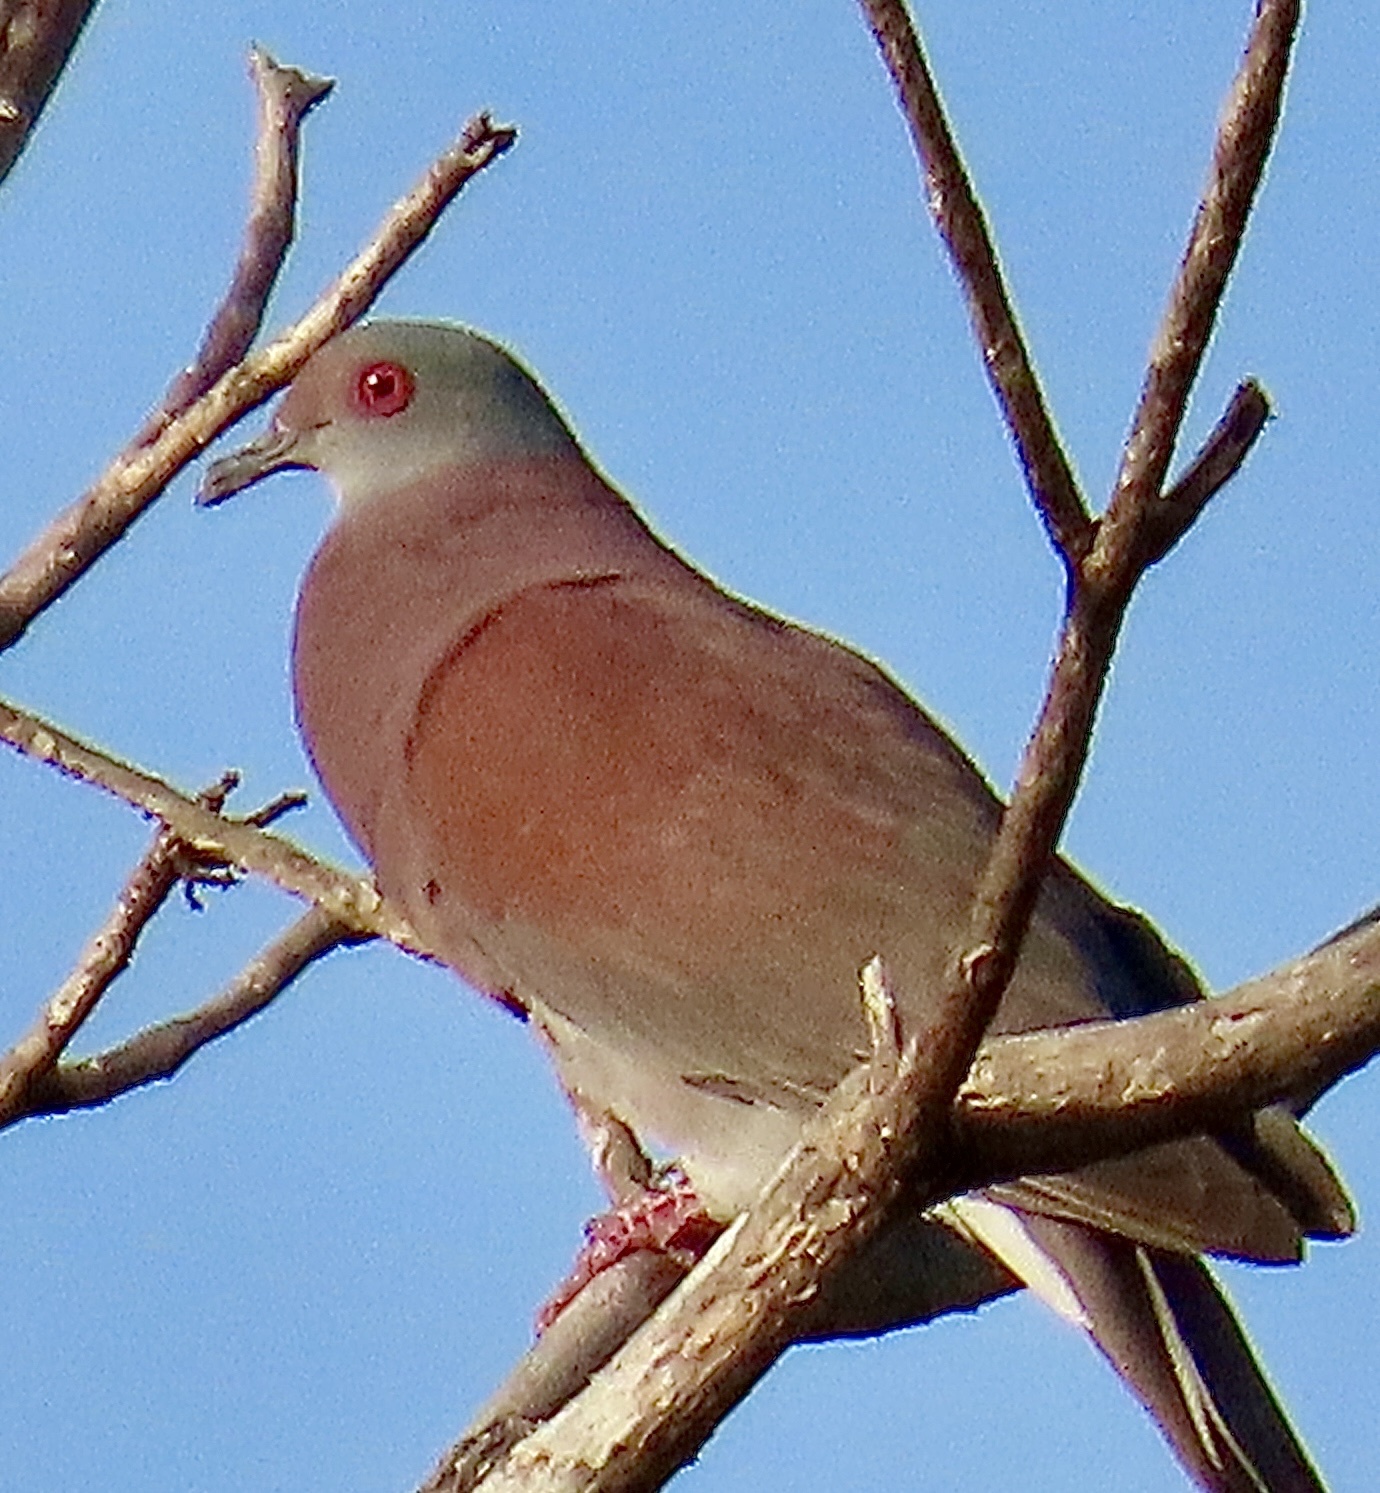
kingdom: Animalia
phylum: Chordata
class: Aves
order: Columbiformes
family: Columbidae
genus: Patagioenas
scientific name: Patagioenas cayennensis
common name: Pale-vented pigeon
